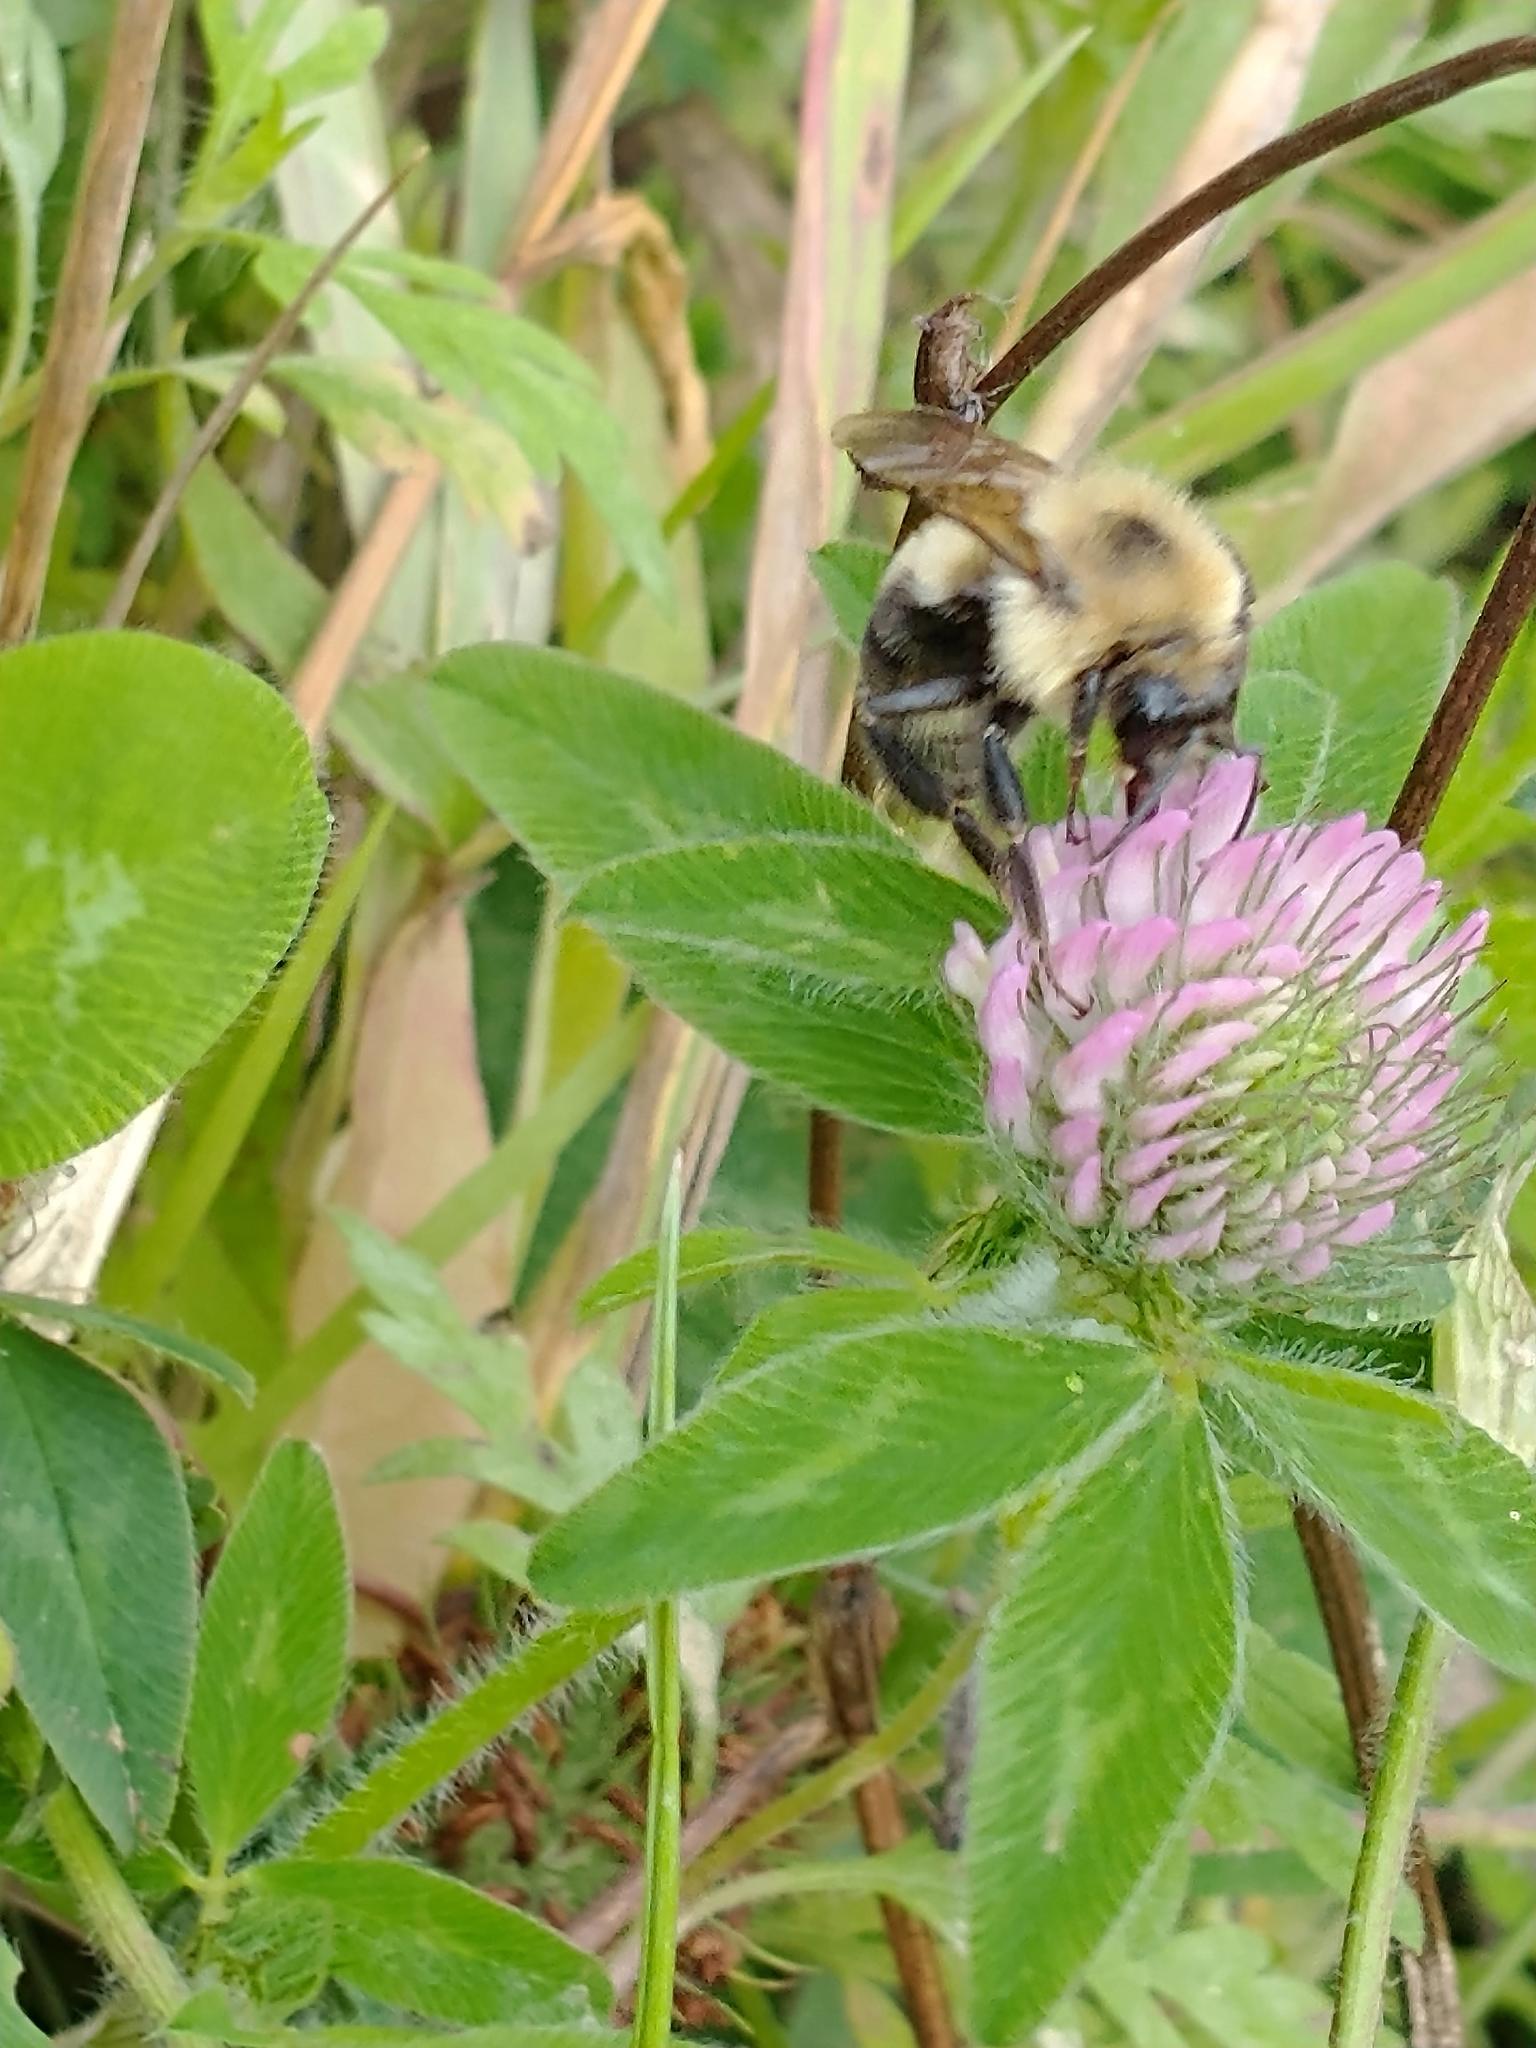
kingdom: Plantae
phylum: Tracheophyta
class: Magnoliopsida
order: Fabales
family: Fabaceae
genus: Trifolium
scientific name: Trifolium pratense
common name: Red clover
